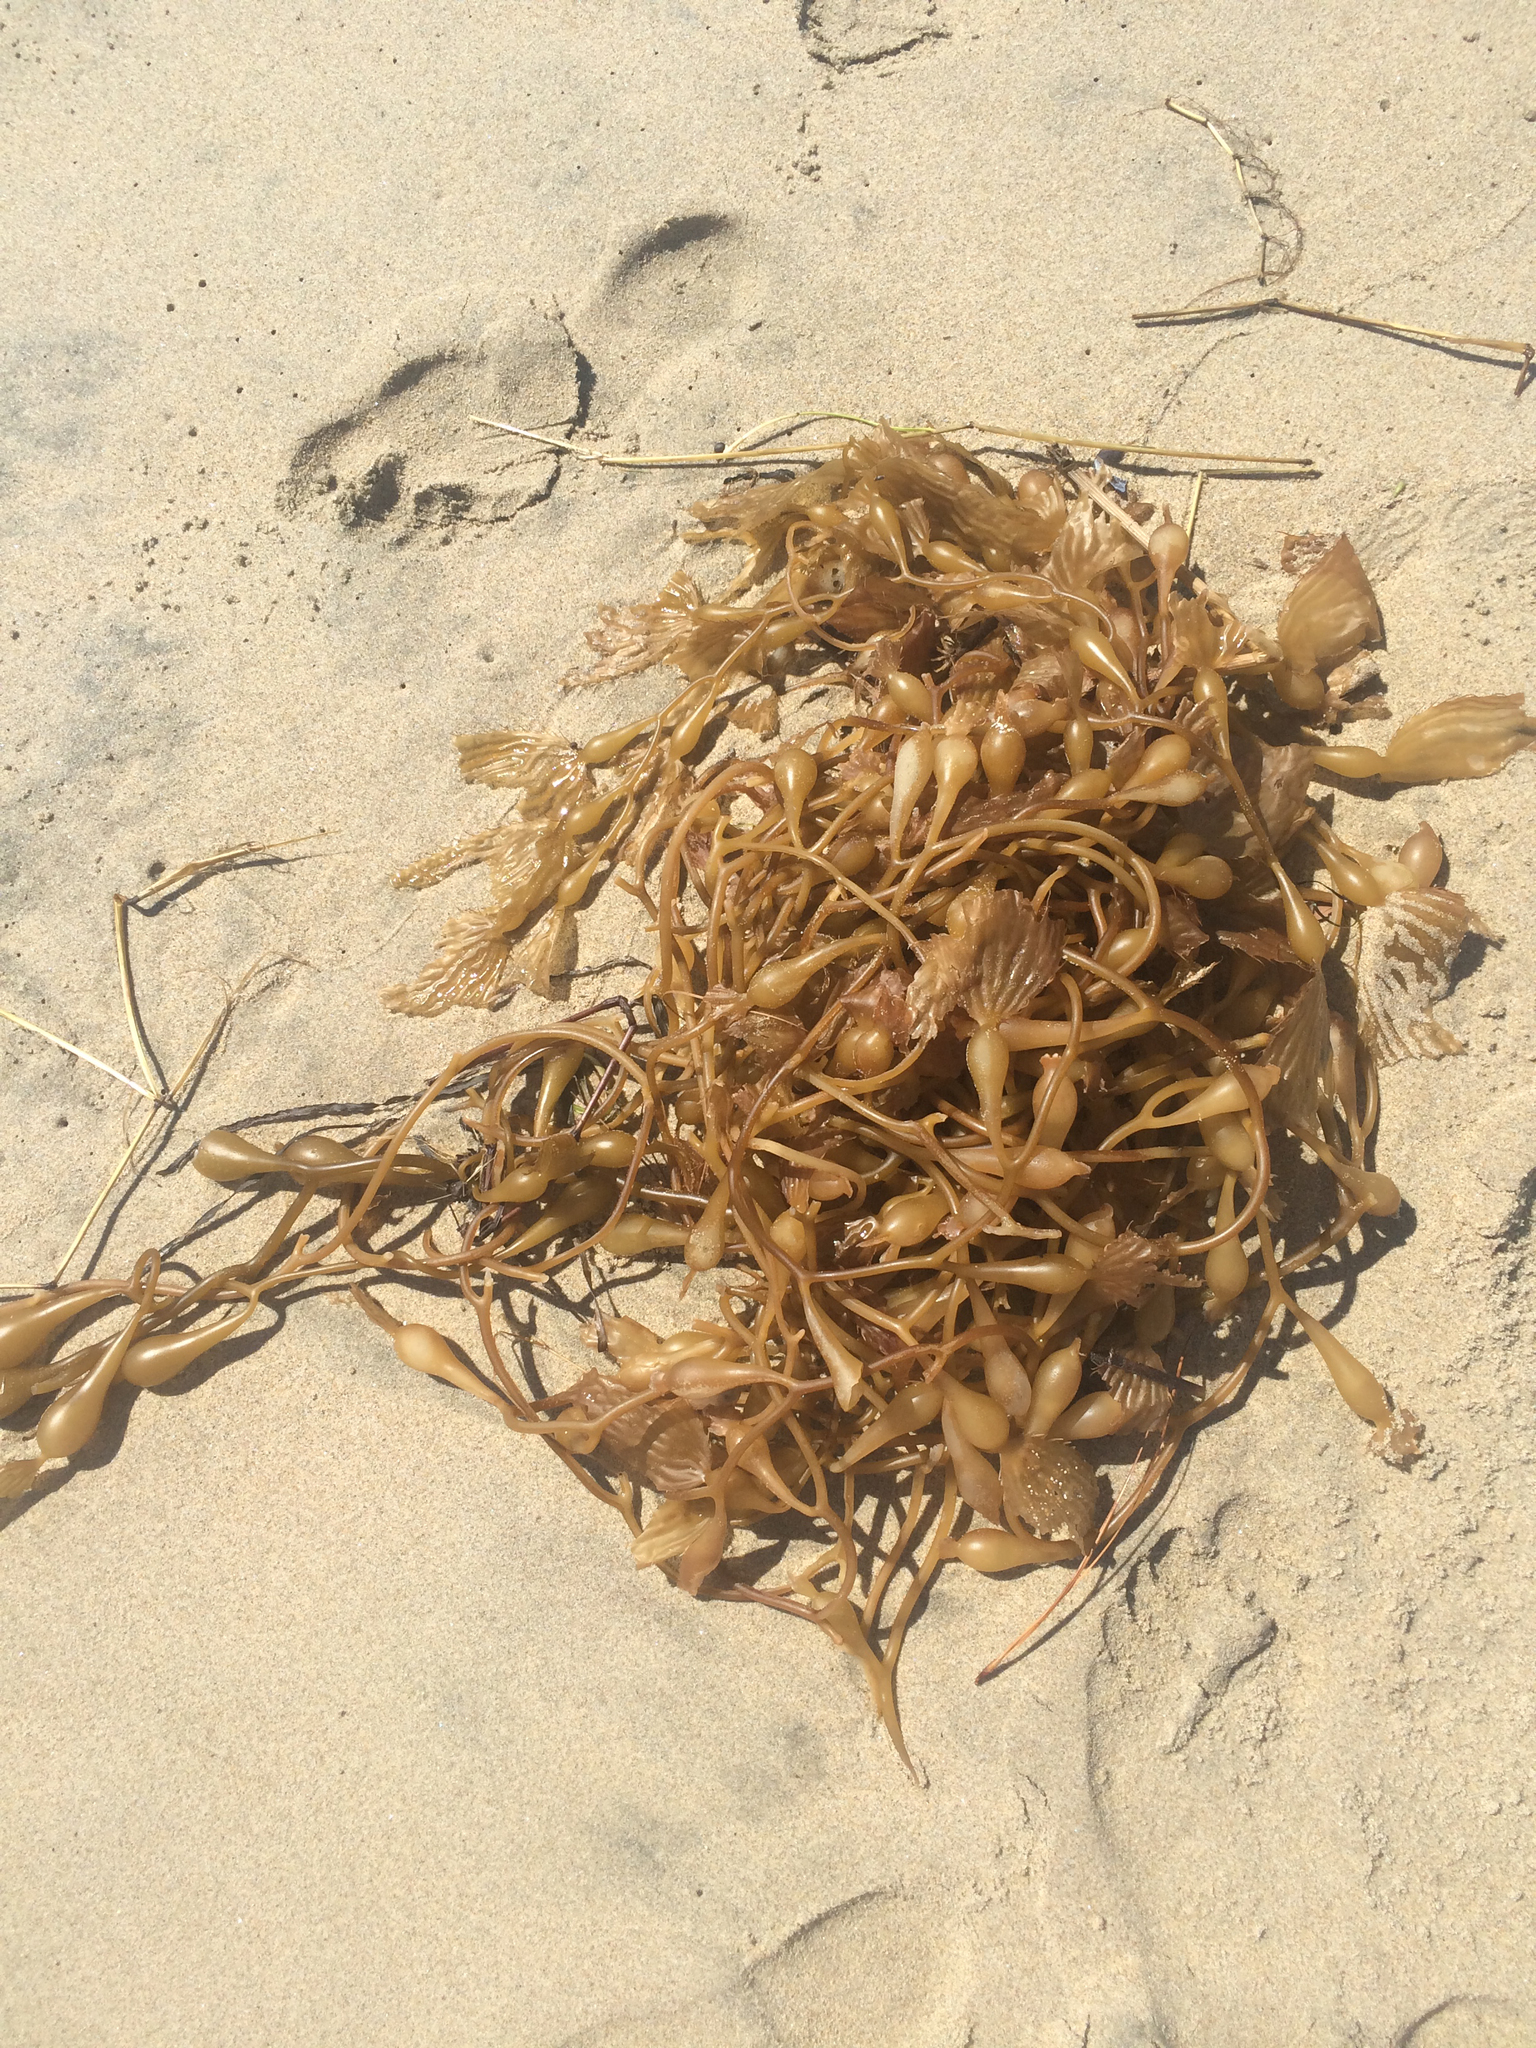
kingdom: Chromista
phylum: Ochrophyta
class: Phaeophyceae
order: Laminariales
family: Laminariaceae
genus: Macrocystis
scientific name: Macrocystis pyrifera
